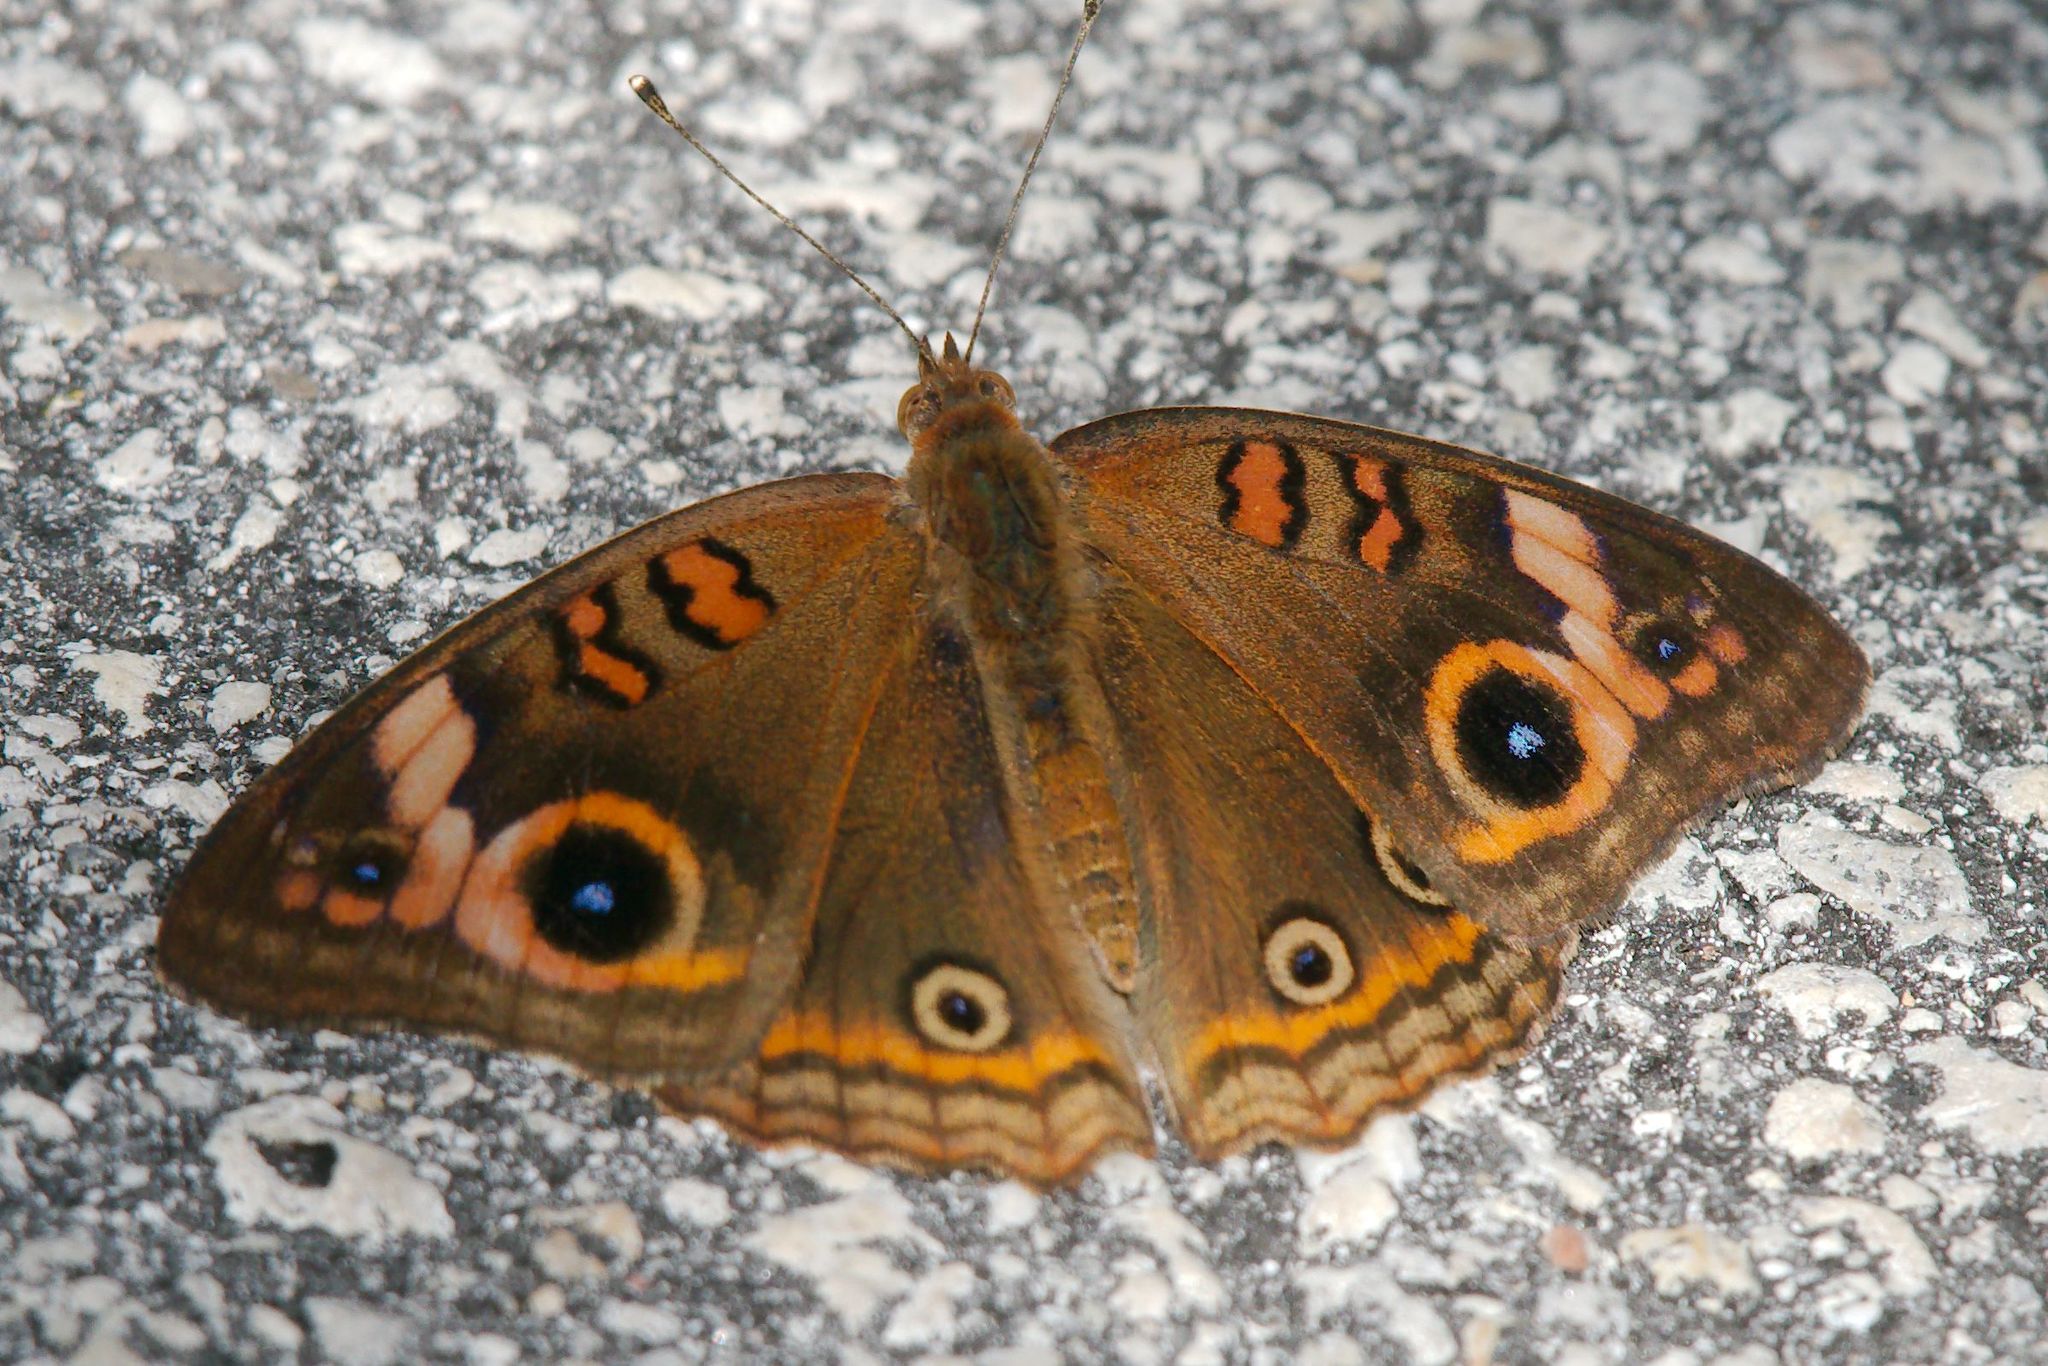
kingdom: Animalia
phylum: Arthropoda
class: Insecta
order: Lepidoptera
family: Nymphalidae
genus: Junonia
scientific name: Junonia neildi
